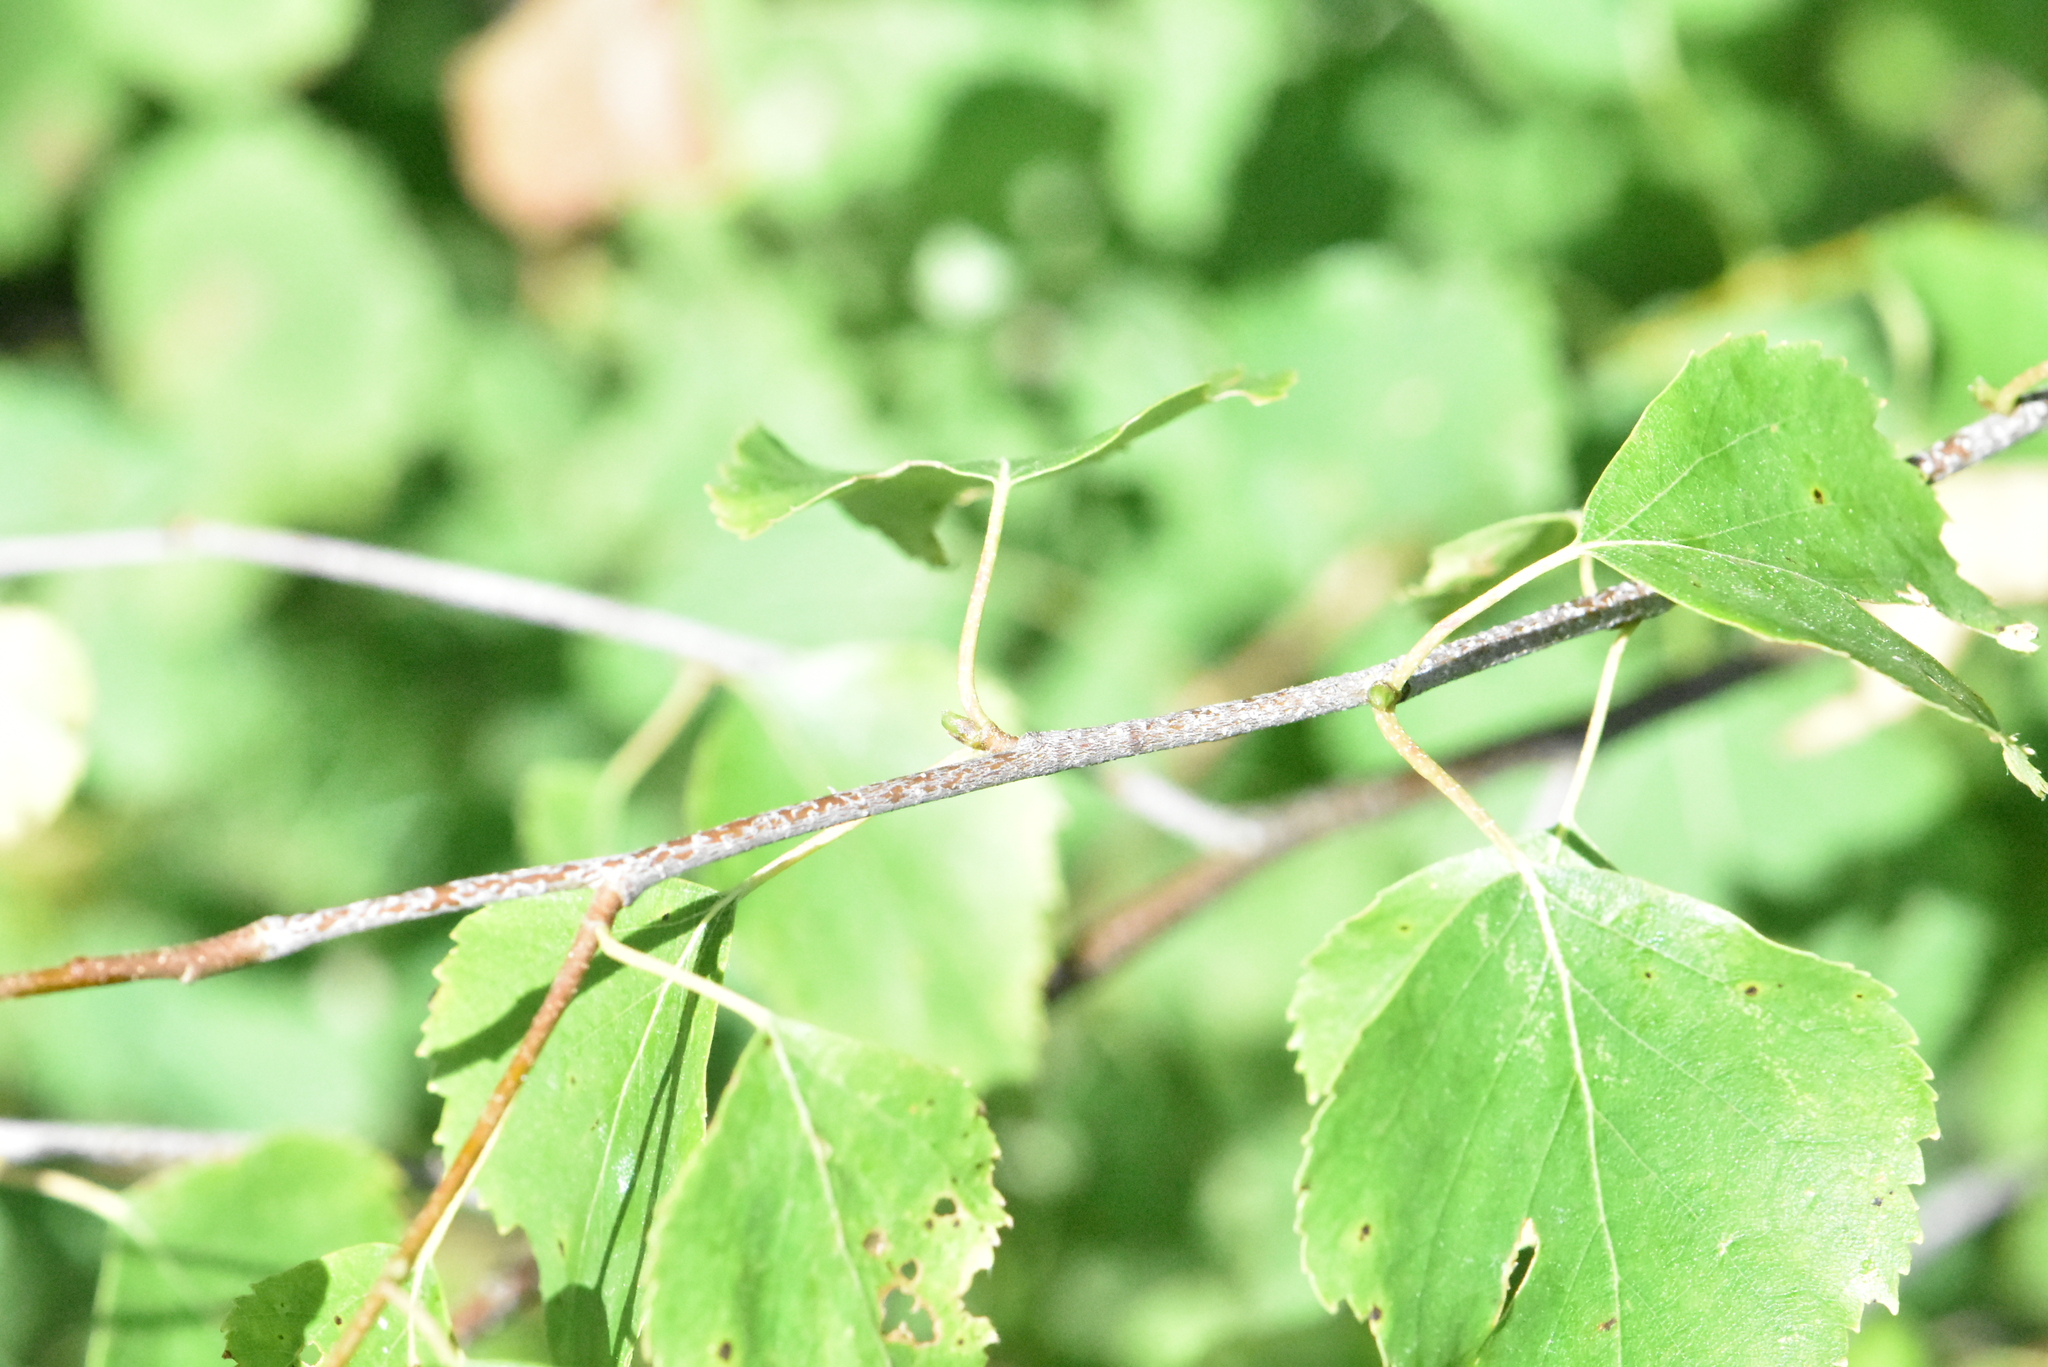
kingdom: Plantae
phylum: Tracheophyta
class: Magnoliopsida
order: Fagales
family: Betulaceae
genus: Betula
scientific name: Betula pendula
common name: Silver birch
